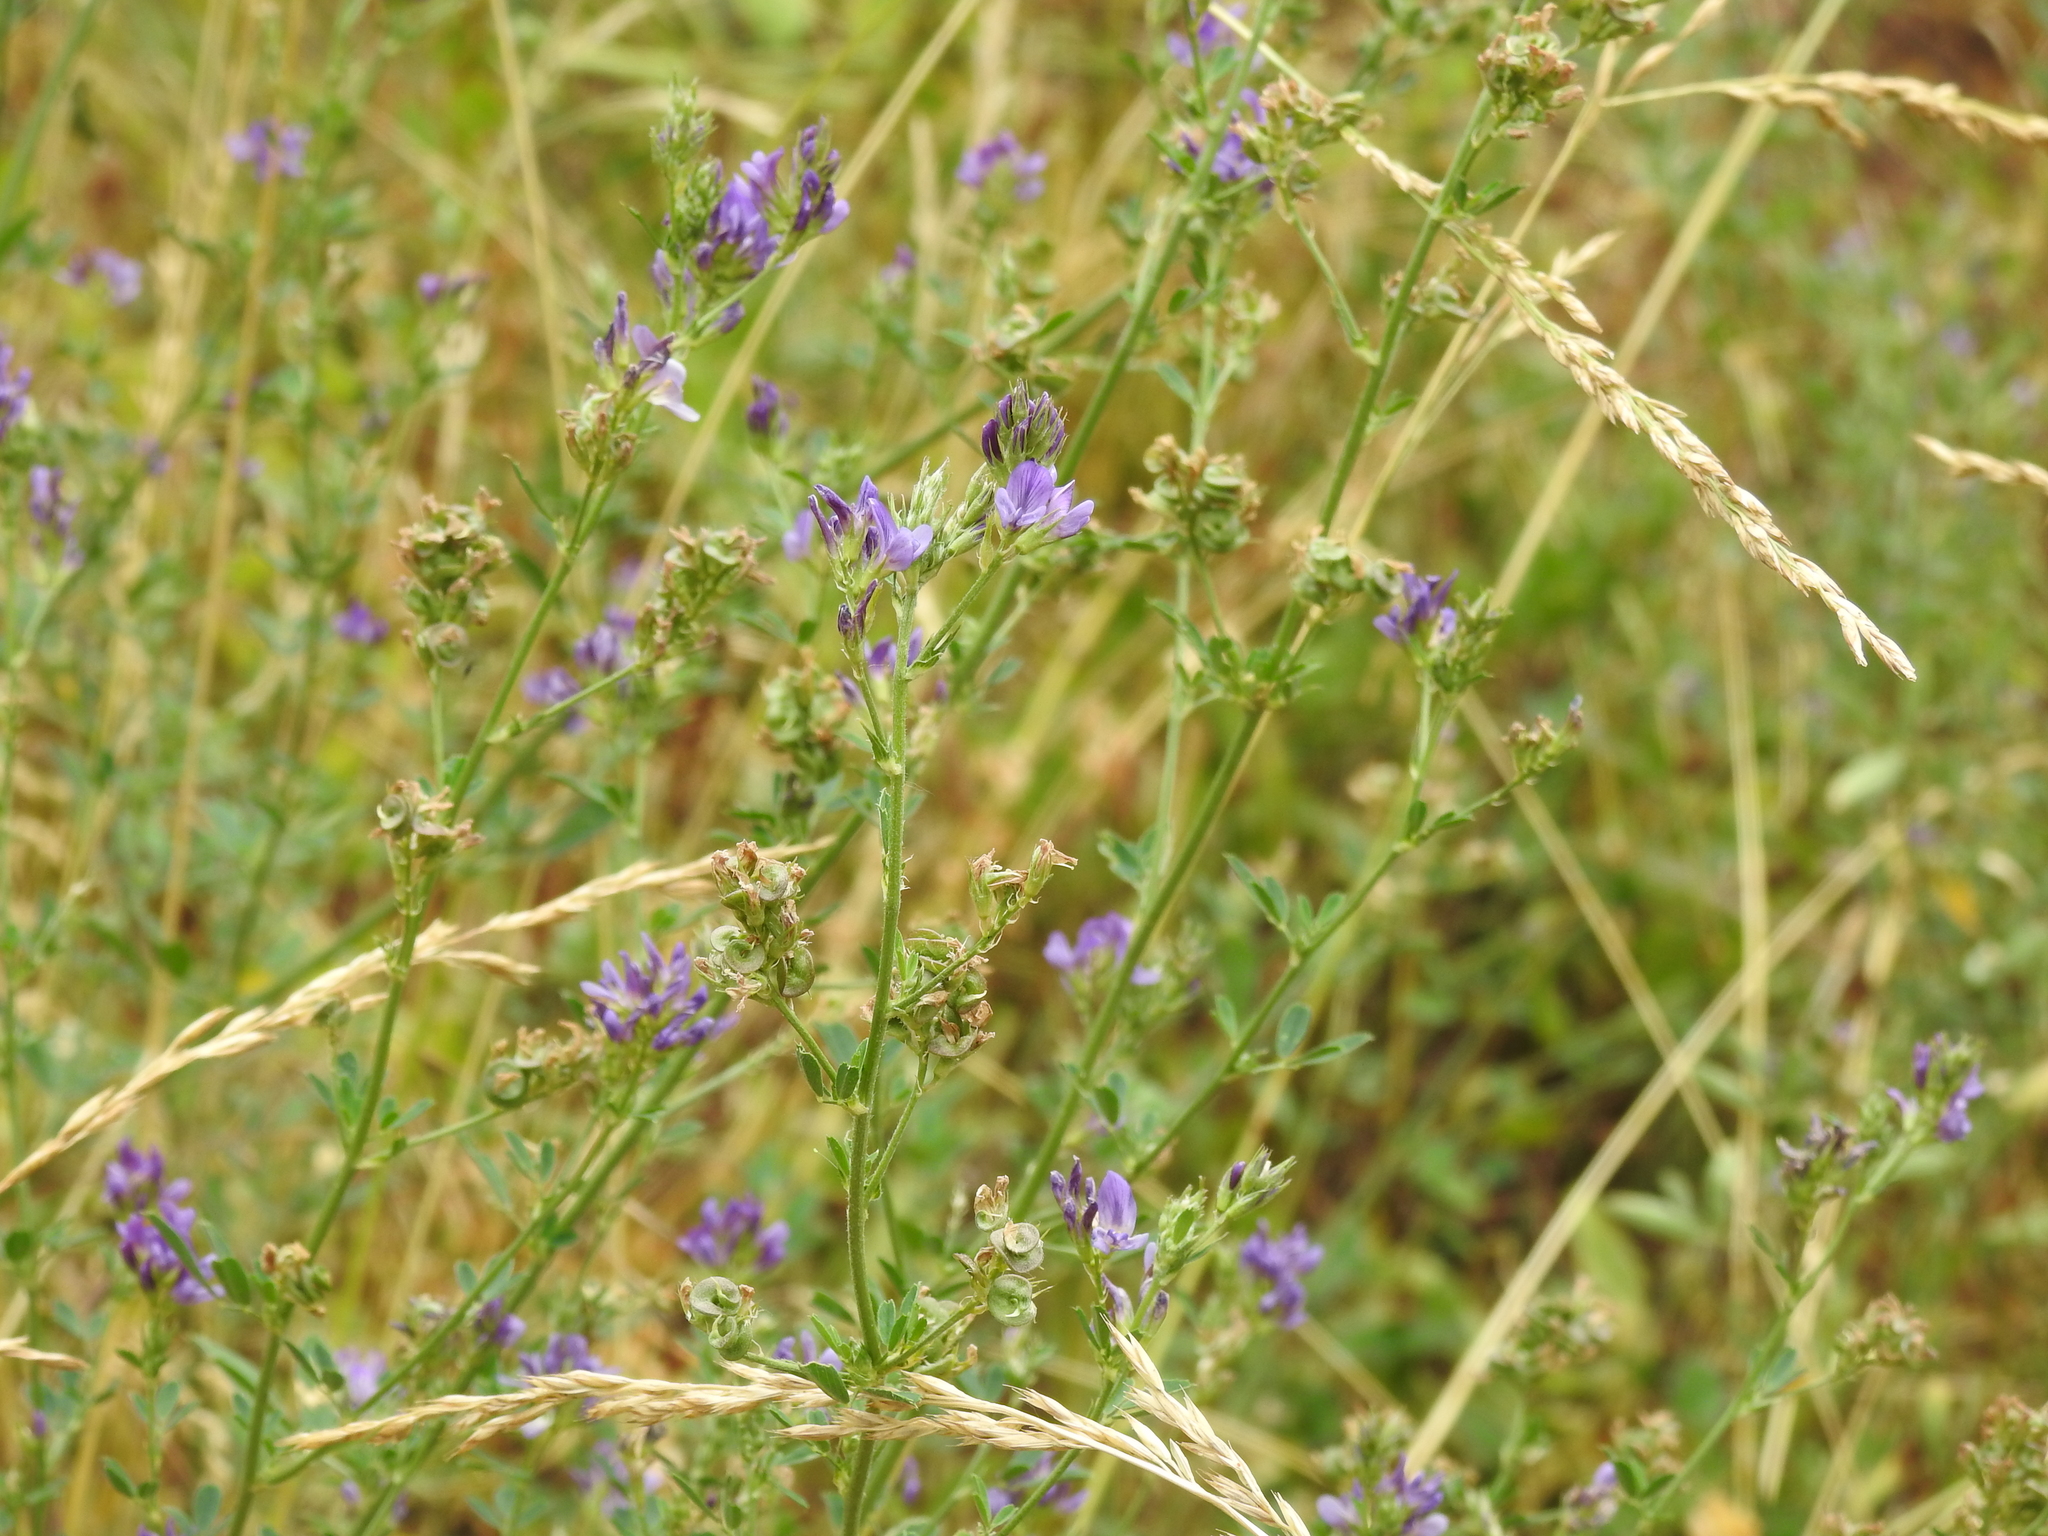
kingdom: Plantae
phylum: Tracheophyta
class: Magnoliopsida
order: Fabales
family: Fabaceae
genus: Medicago
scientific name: Medicago varia
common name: Sand lucerne
